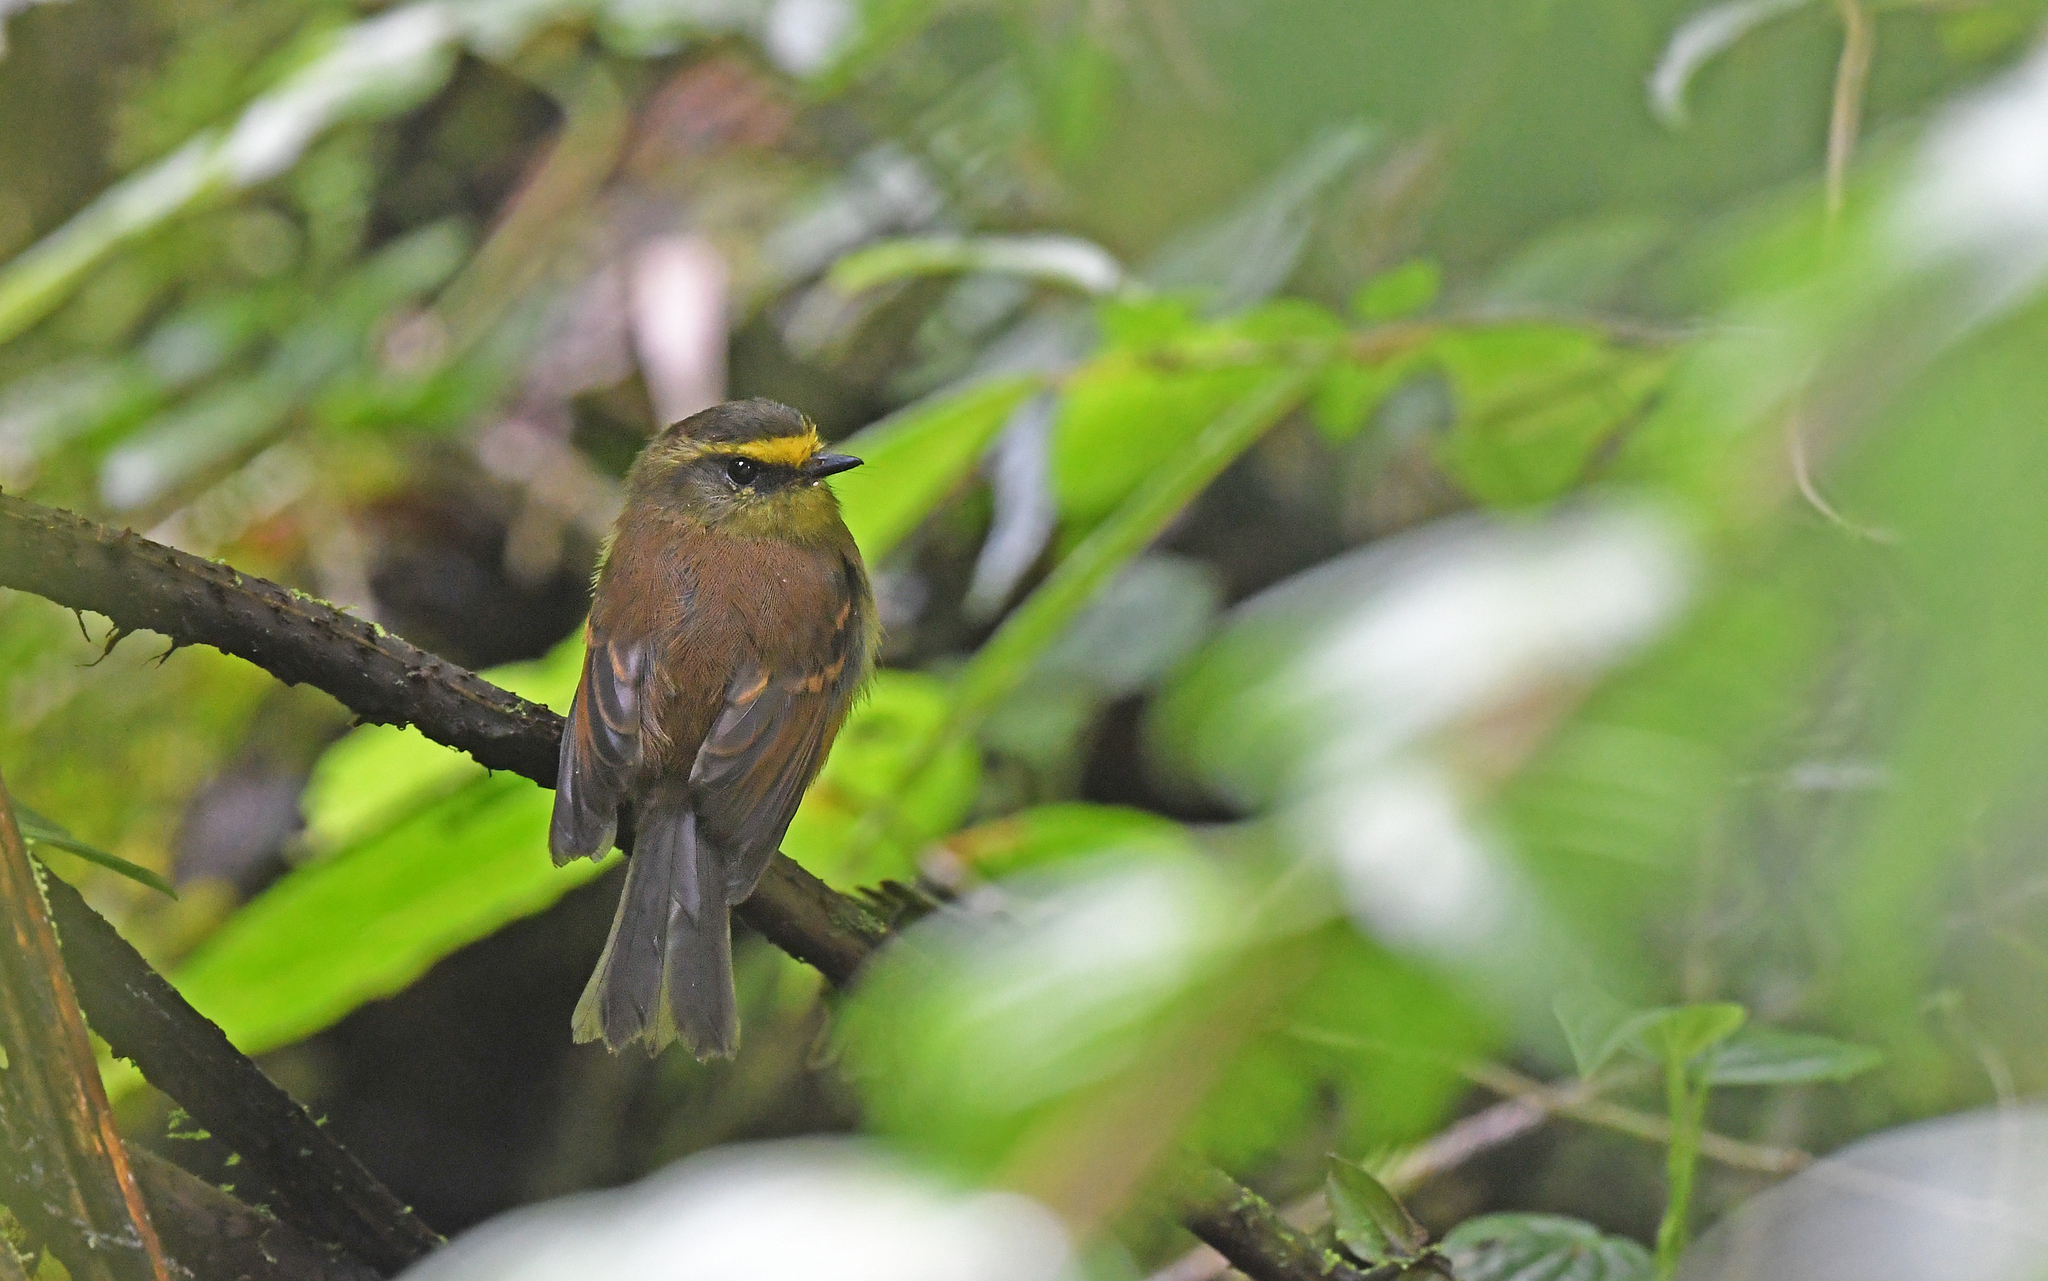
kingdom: Animalia
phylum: Chordata
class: Aves
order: Passeriformes
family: Tyrannidae
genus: Ochthoeca
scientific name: Ochthoeca diadema
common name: Yellow-bellied chat-tyrant
